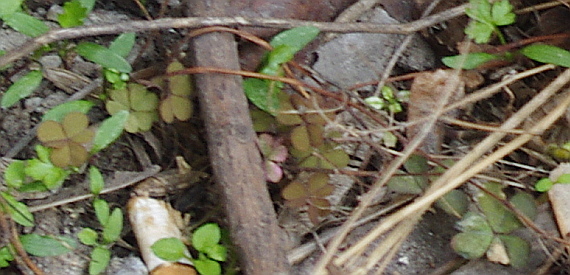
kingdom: Plantae
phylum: Tracheophyta
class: Magnoliopsida
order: Oxalidales
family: Oxalidaceae
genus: Oxalis
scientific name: Oxalis corniculata
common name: Procumbent yellow-sorrel
